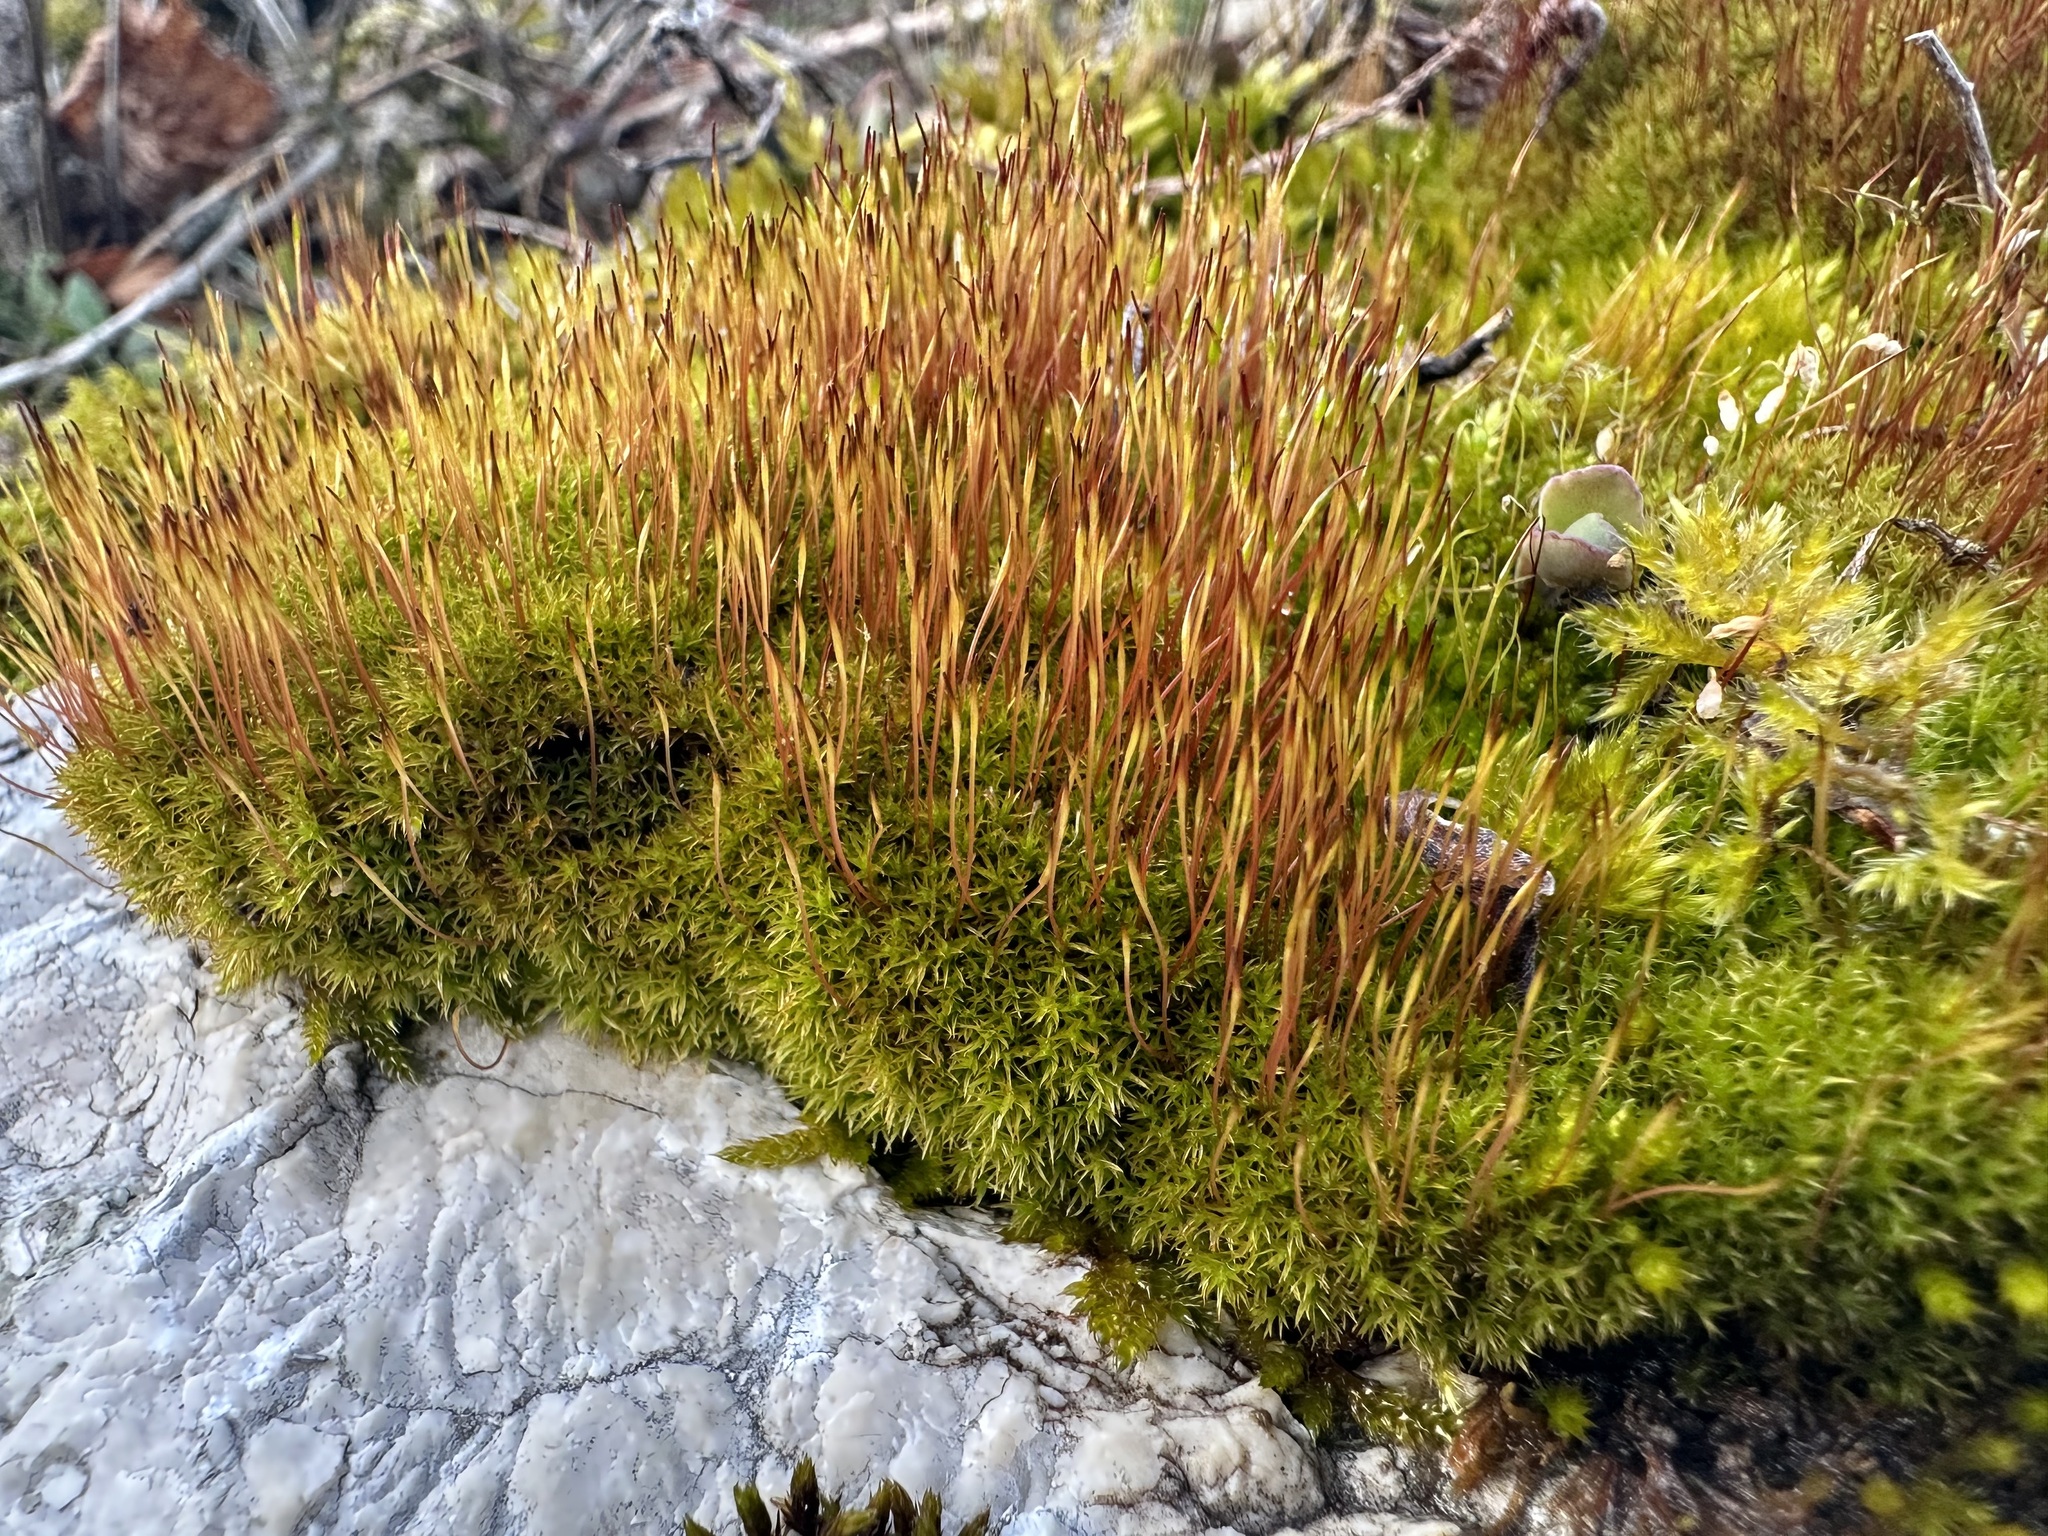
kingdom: Plantae
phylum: Bryophyta
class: Bryopsida
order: Dicranales
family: Ditrichaceae
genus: Ceratodon
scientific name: Ceratodon purpureus
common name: Redshank
